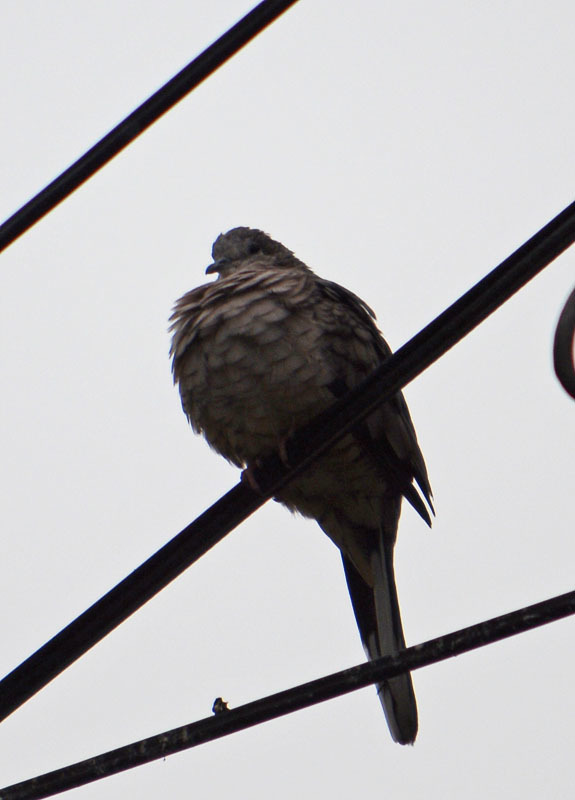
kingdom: Animalia
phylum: Chordata
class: Aves
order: Columbiformes
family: Columbidae
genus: Columbina
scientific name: Columbina inca
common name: Inca dove
